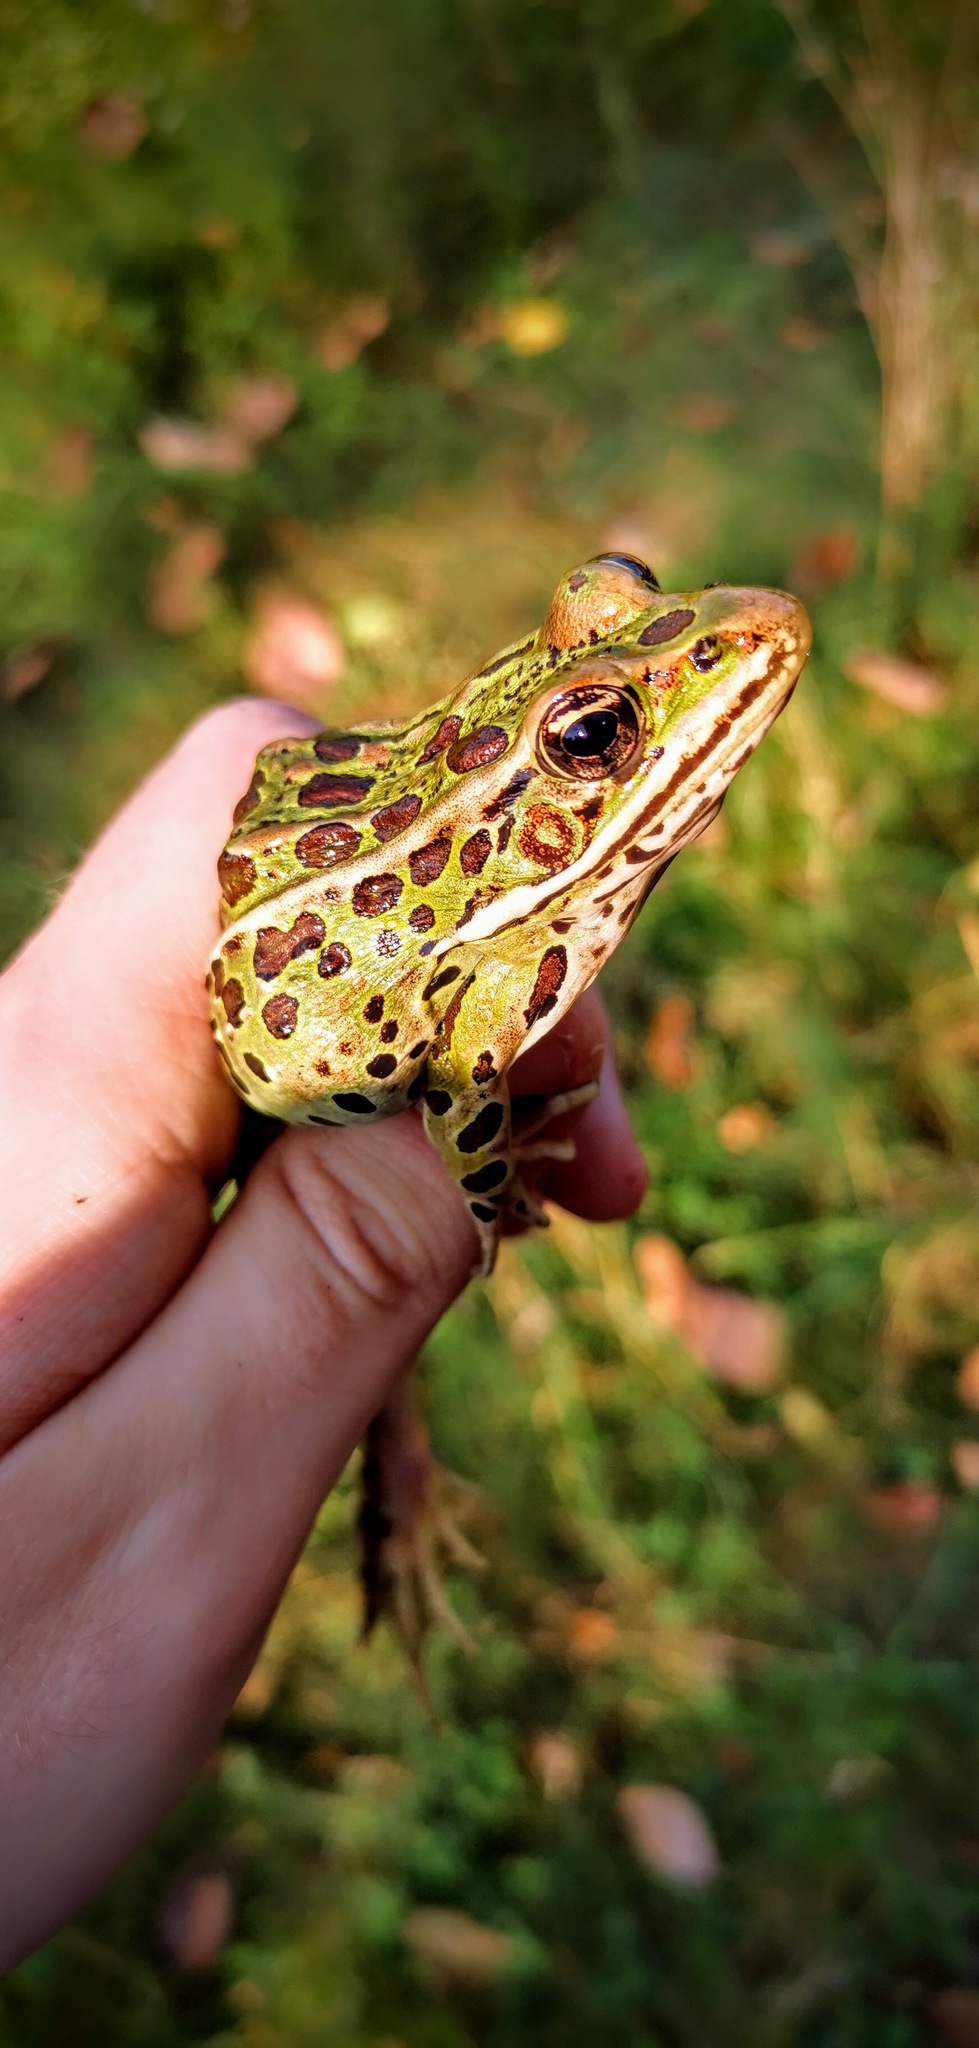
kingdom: Animalia
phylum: Chordata
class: Amphibia
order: Anura
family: Ranidae
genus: Lithobates
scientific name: Lithobates pipiens
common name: Northern leopard frog
